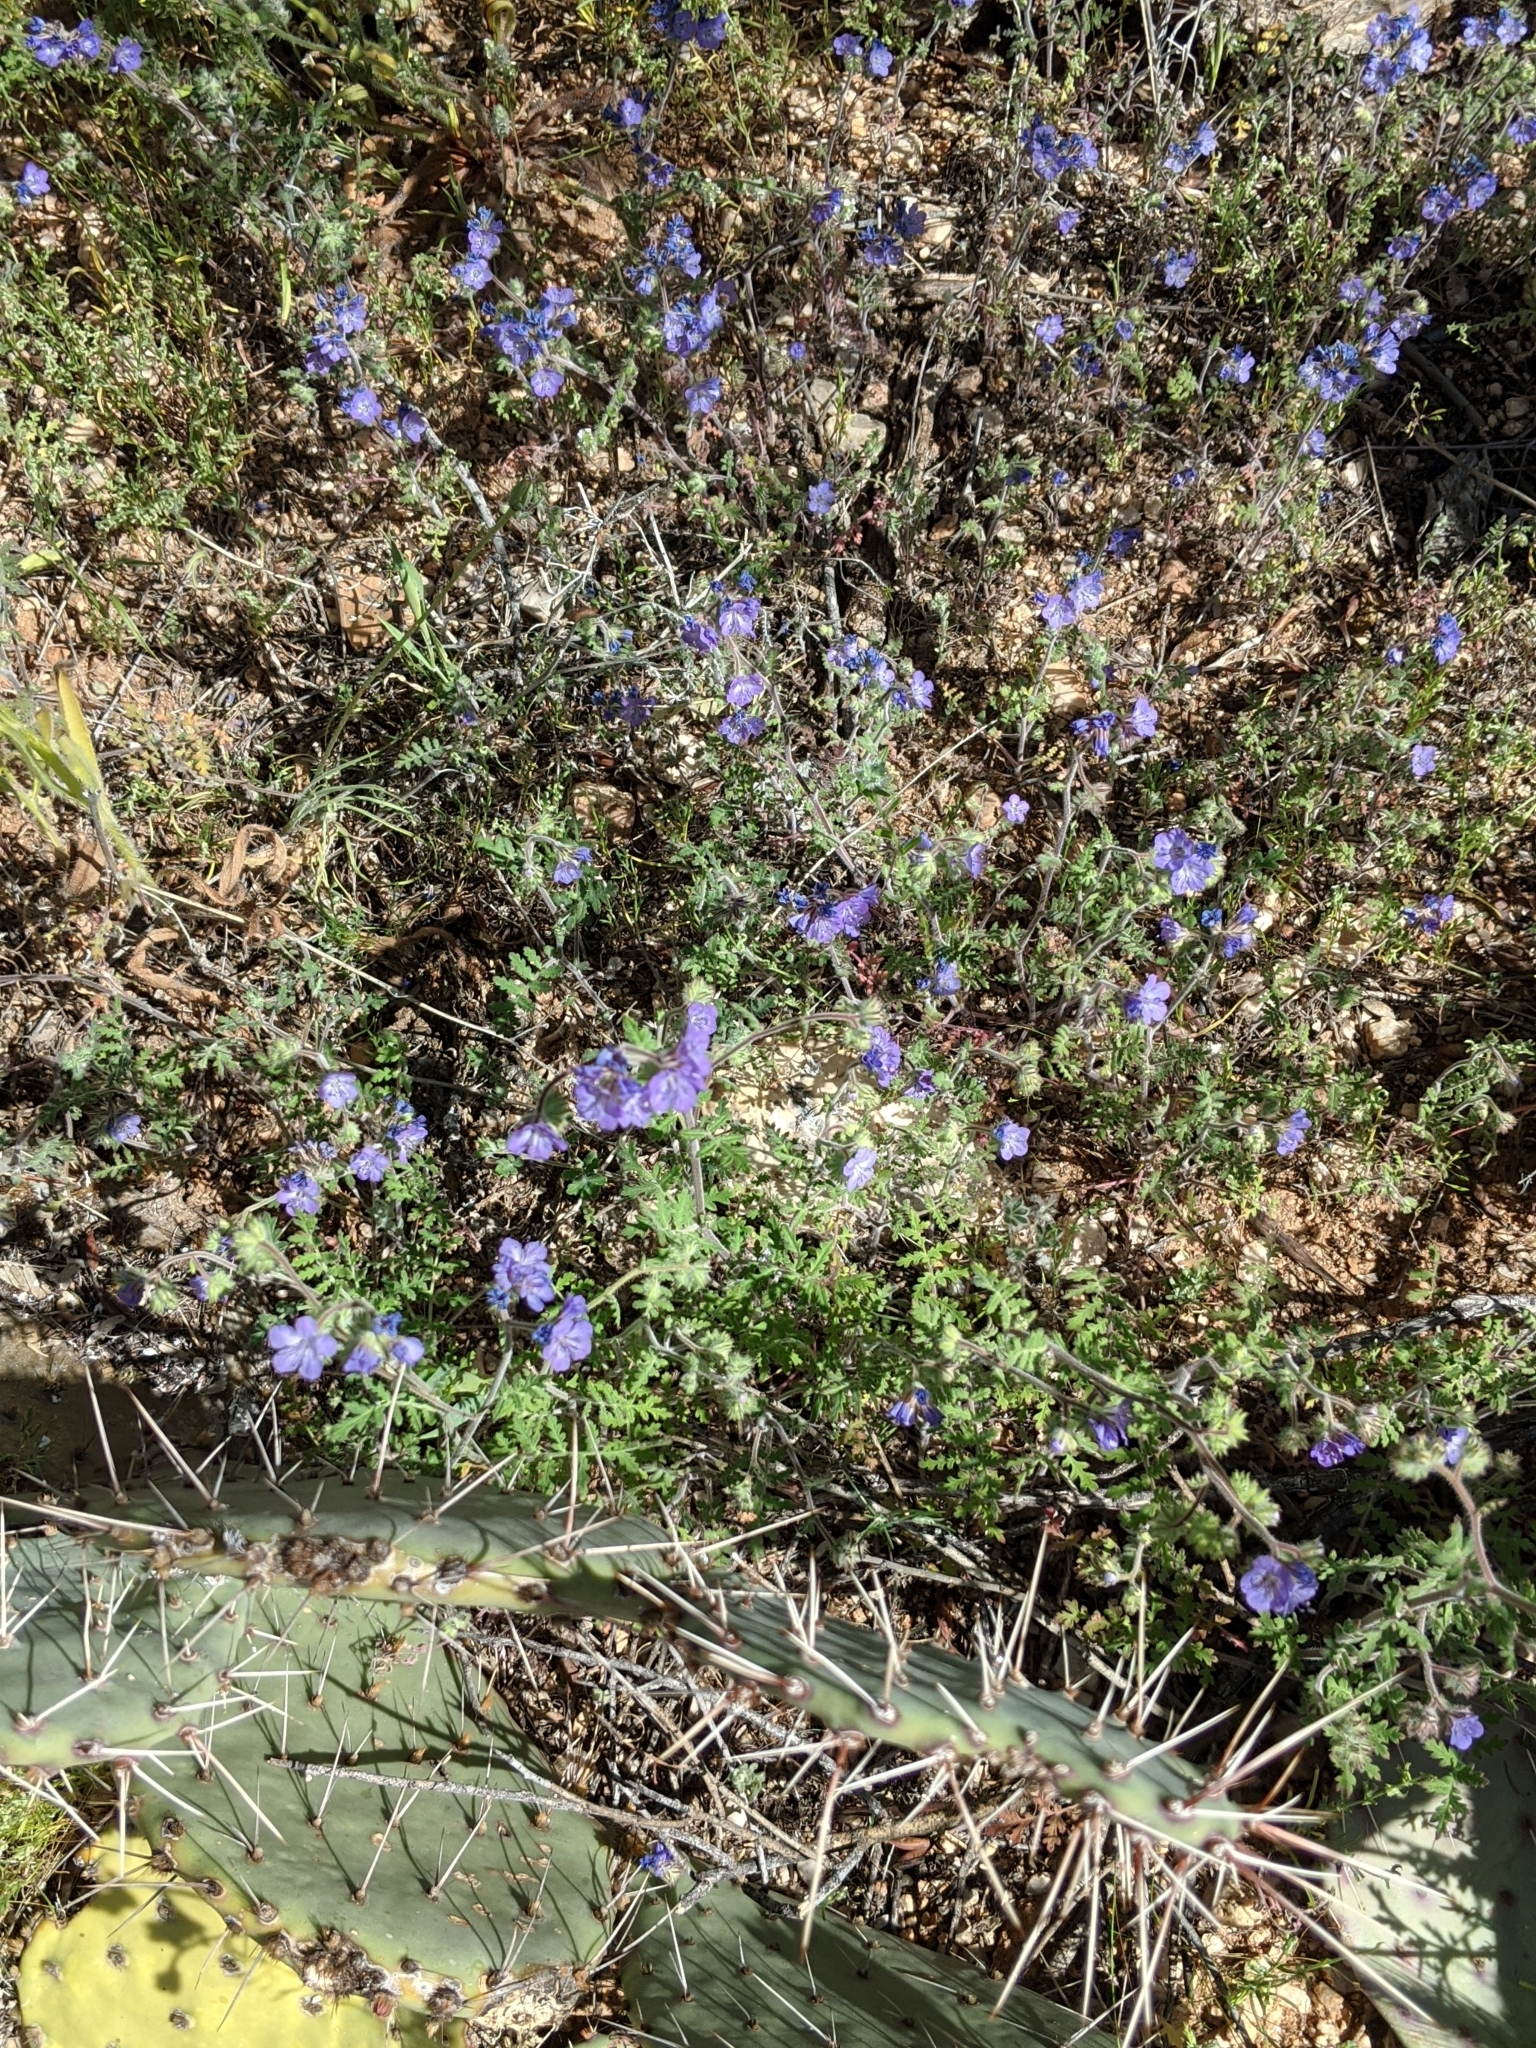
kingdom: Plantae
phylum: Tracheophyta
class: Magnoliopsida
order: Boraginales
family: Hydrophyllaceae
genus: Phacelia
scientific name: Phacelia distans
